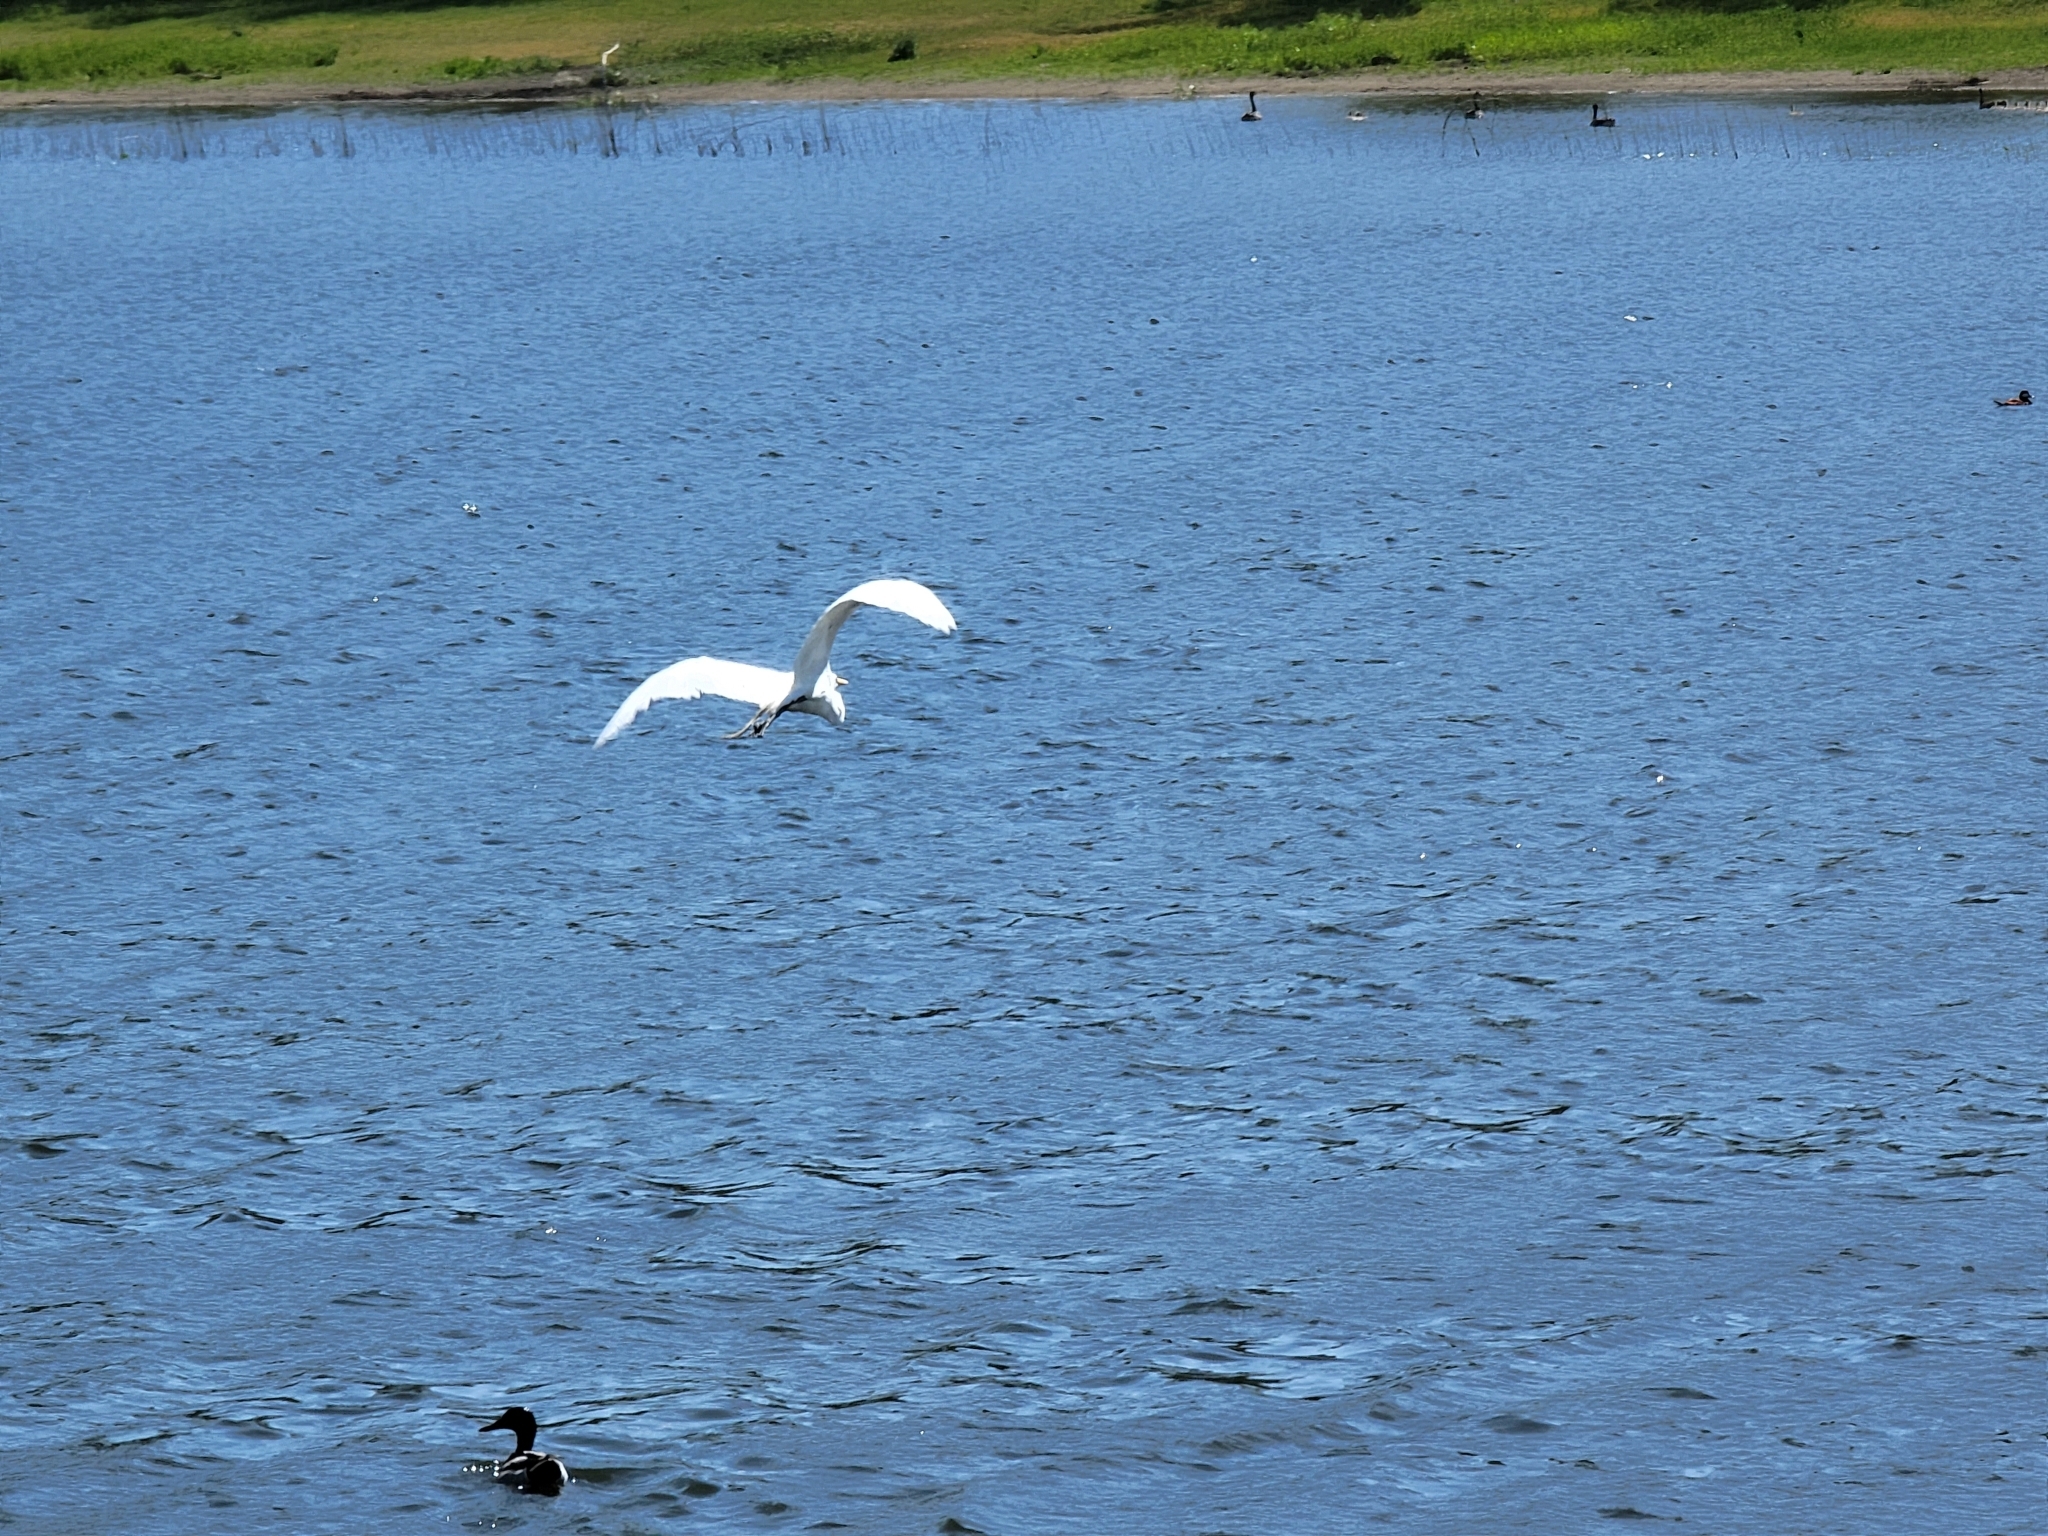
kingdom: Animalia
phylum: Chordata
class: Aves
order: Pelecaniformes
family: Ardeidae
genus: Ardea
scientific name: Ardea alba
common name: Great egret
